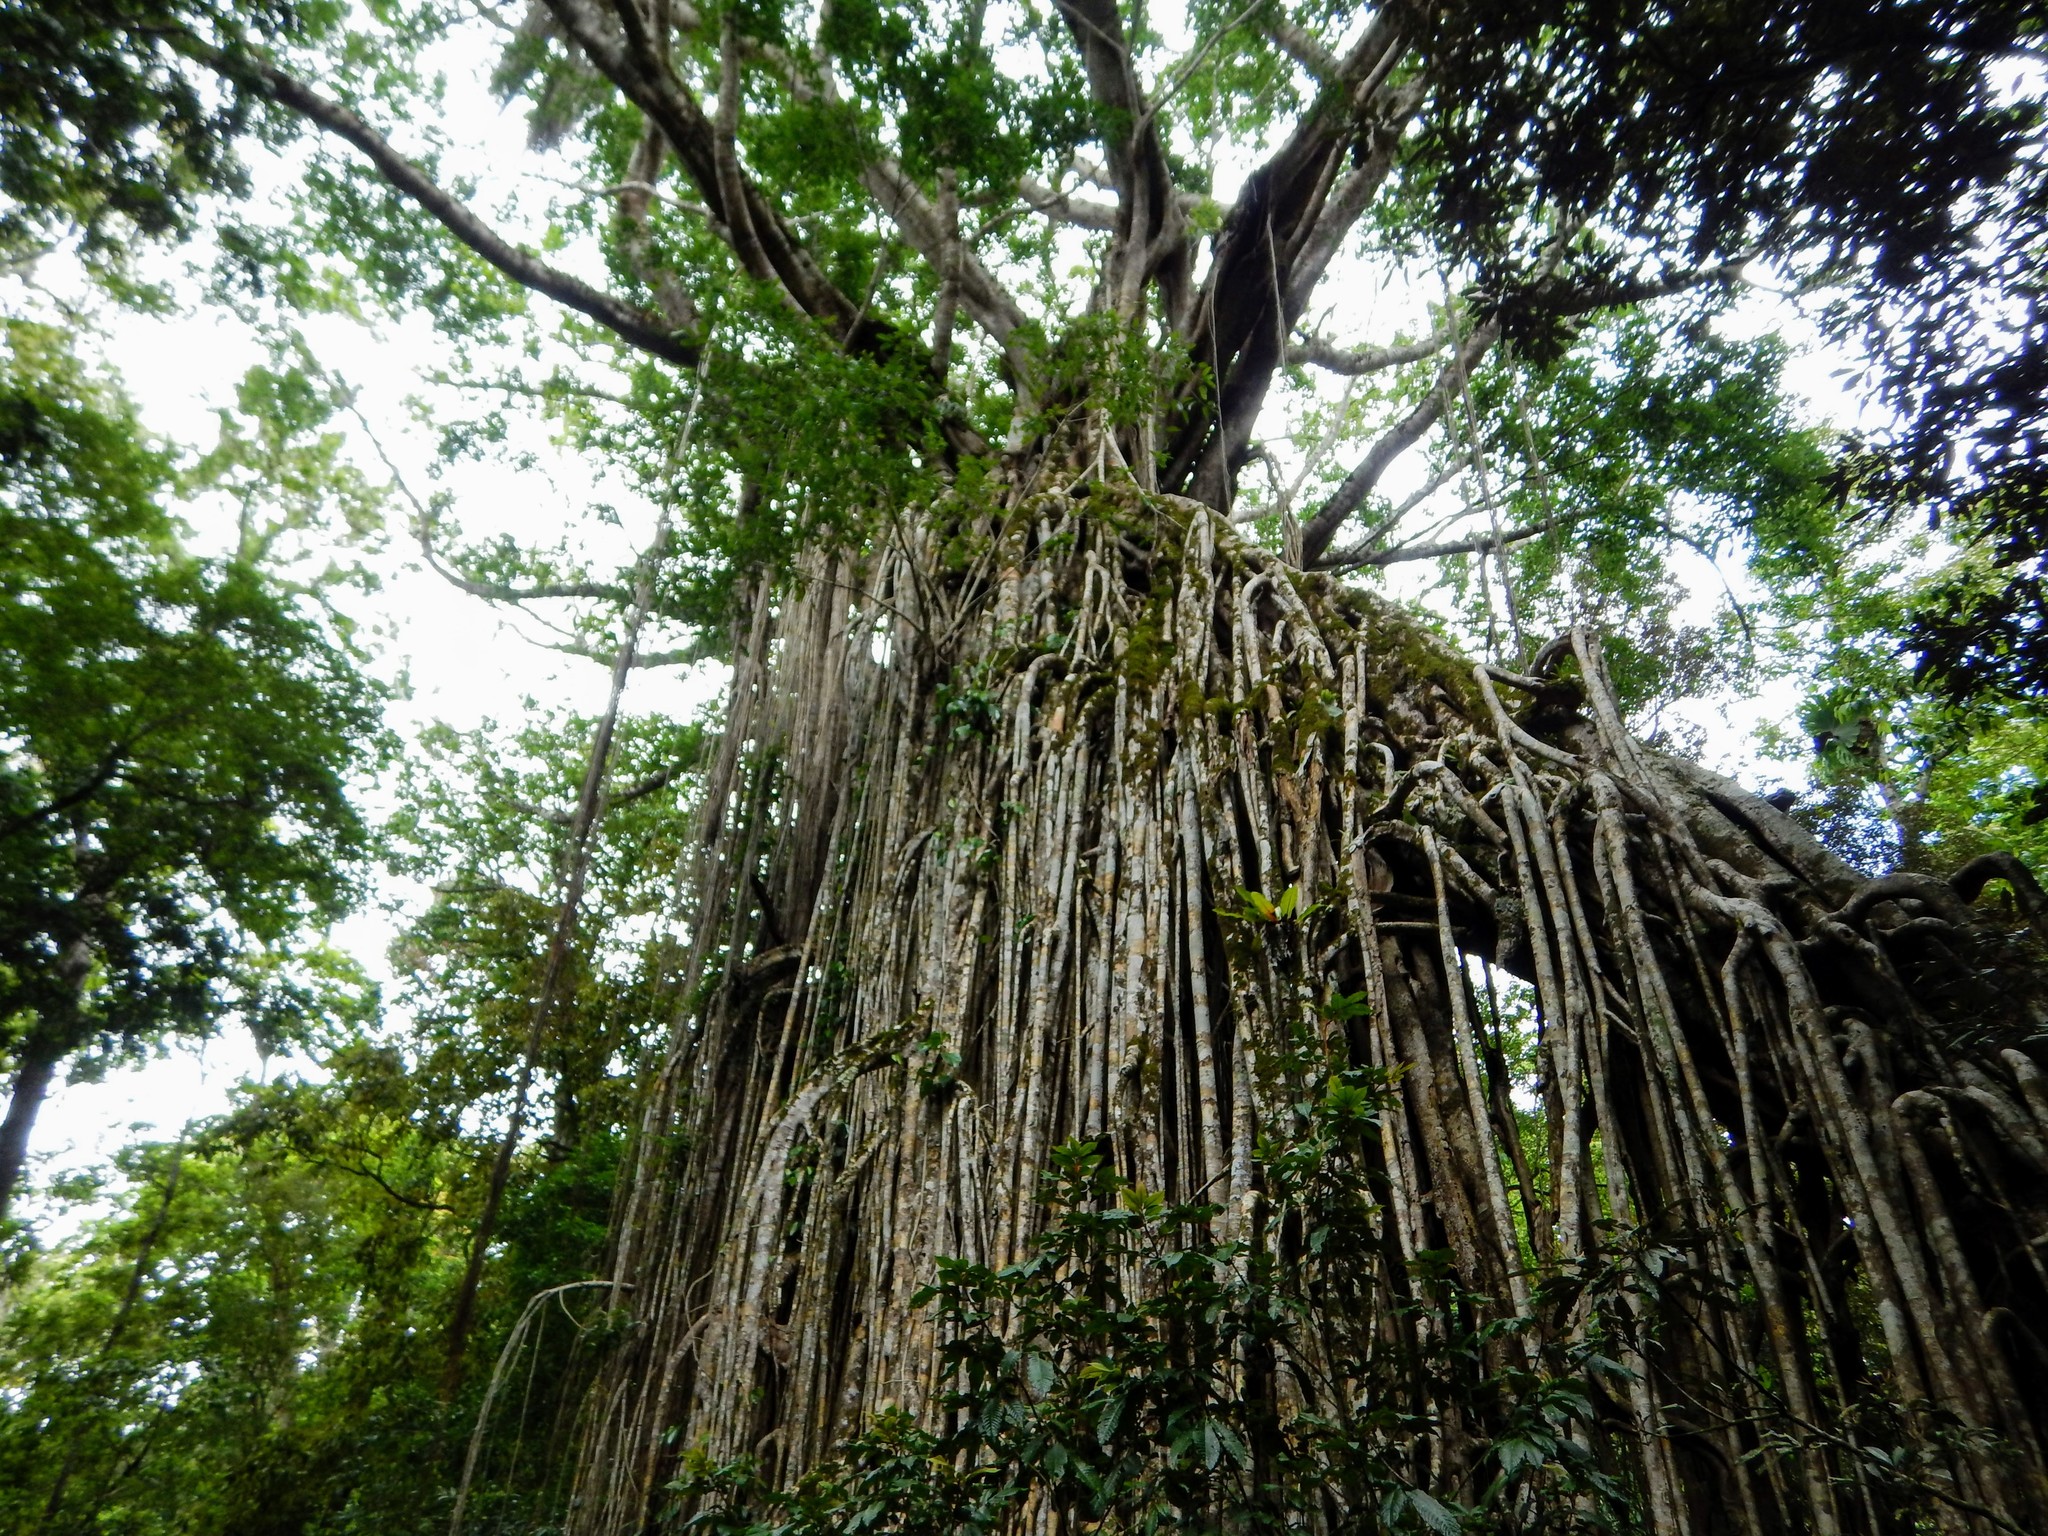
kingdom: Plantae
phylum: Tracheophyta
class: Magnoliopsida
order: Rosales
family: Moraceae
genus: Ficus
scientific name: Ficus virens
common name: Spotted fig
